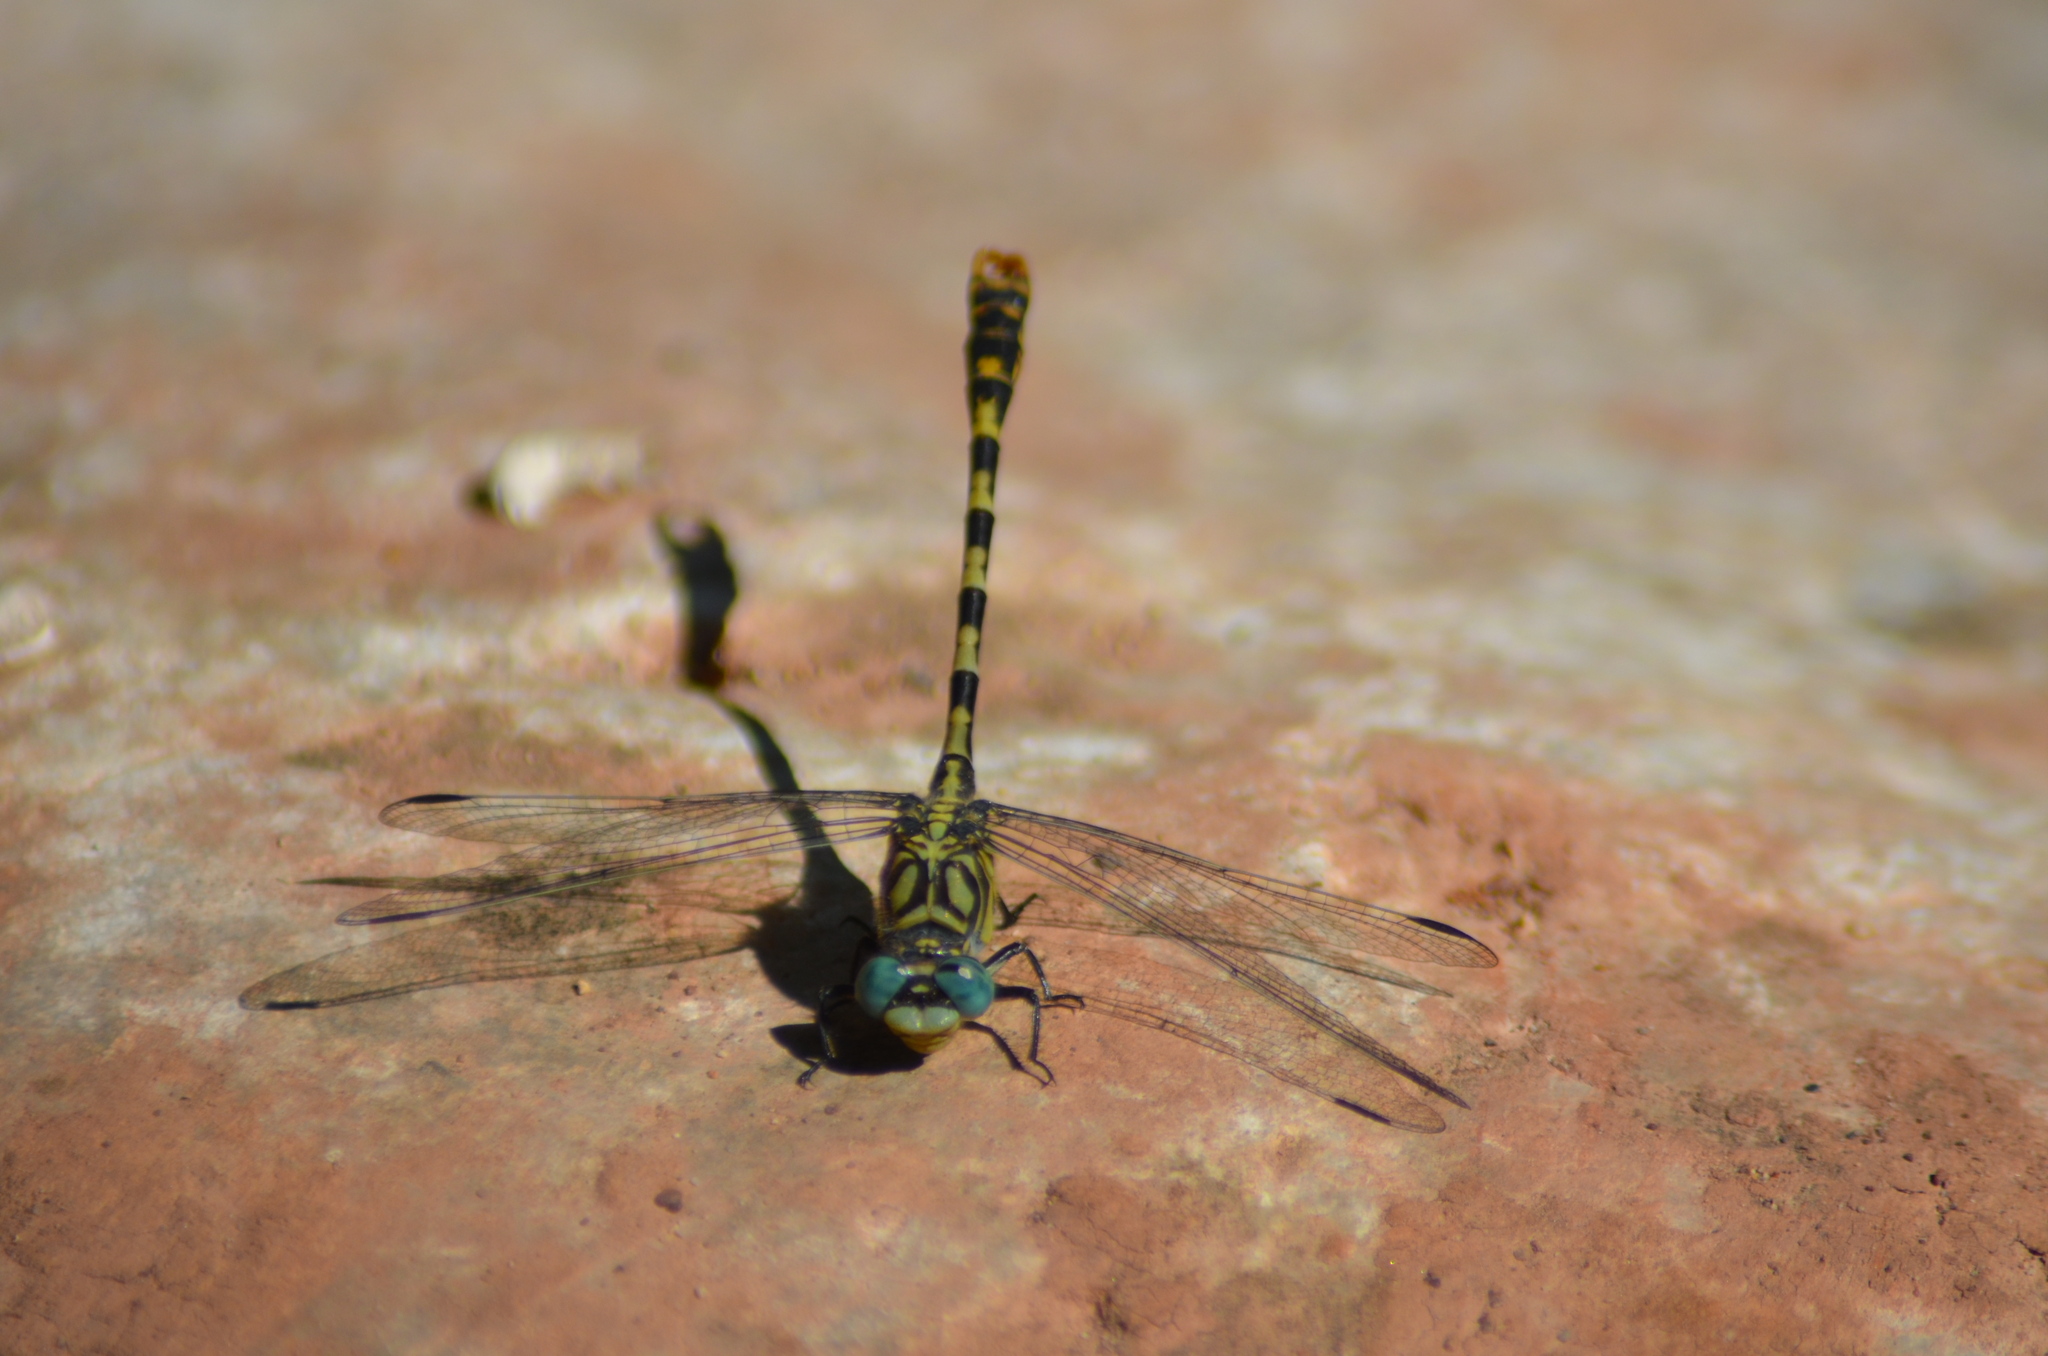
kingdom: Animalia
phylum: Arthropoda
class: Insecta
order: Odonata
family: Gomphidae
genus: Onychogomphus
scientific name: Onychogomphus uncatus
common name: Large pincertail
